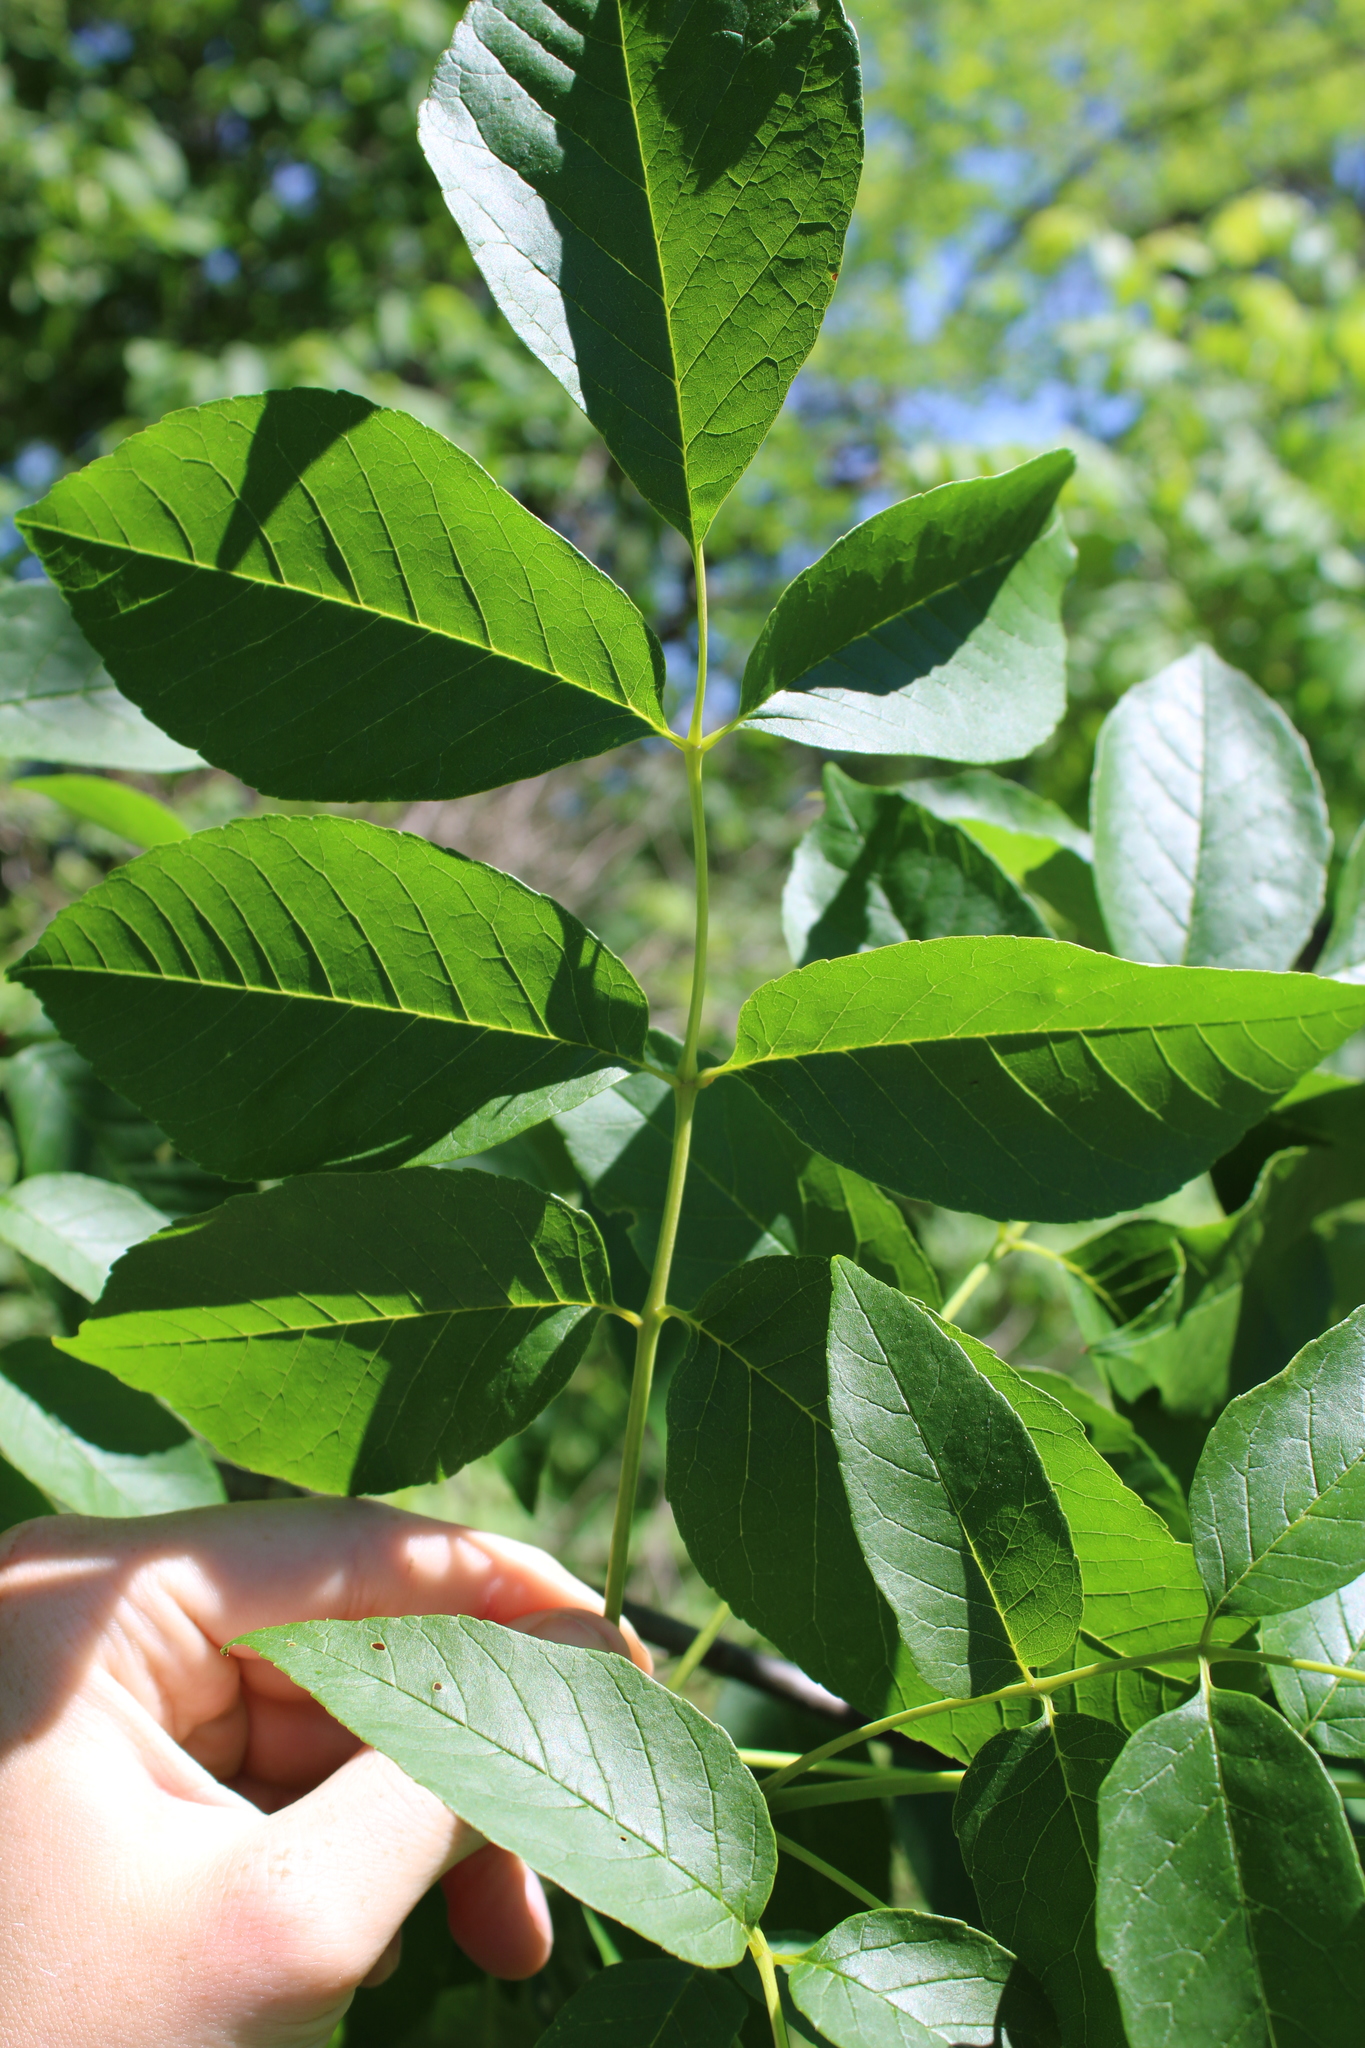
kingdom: Plantae
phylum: Tracheophyta
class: Magnoliopsida
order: Lamiales
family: Oleaceae
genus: Fraxinus
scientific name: Fraxinus americana
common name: White ash
